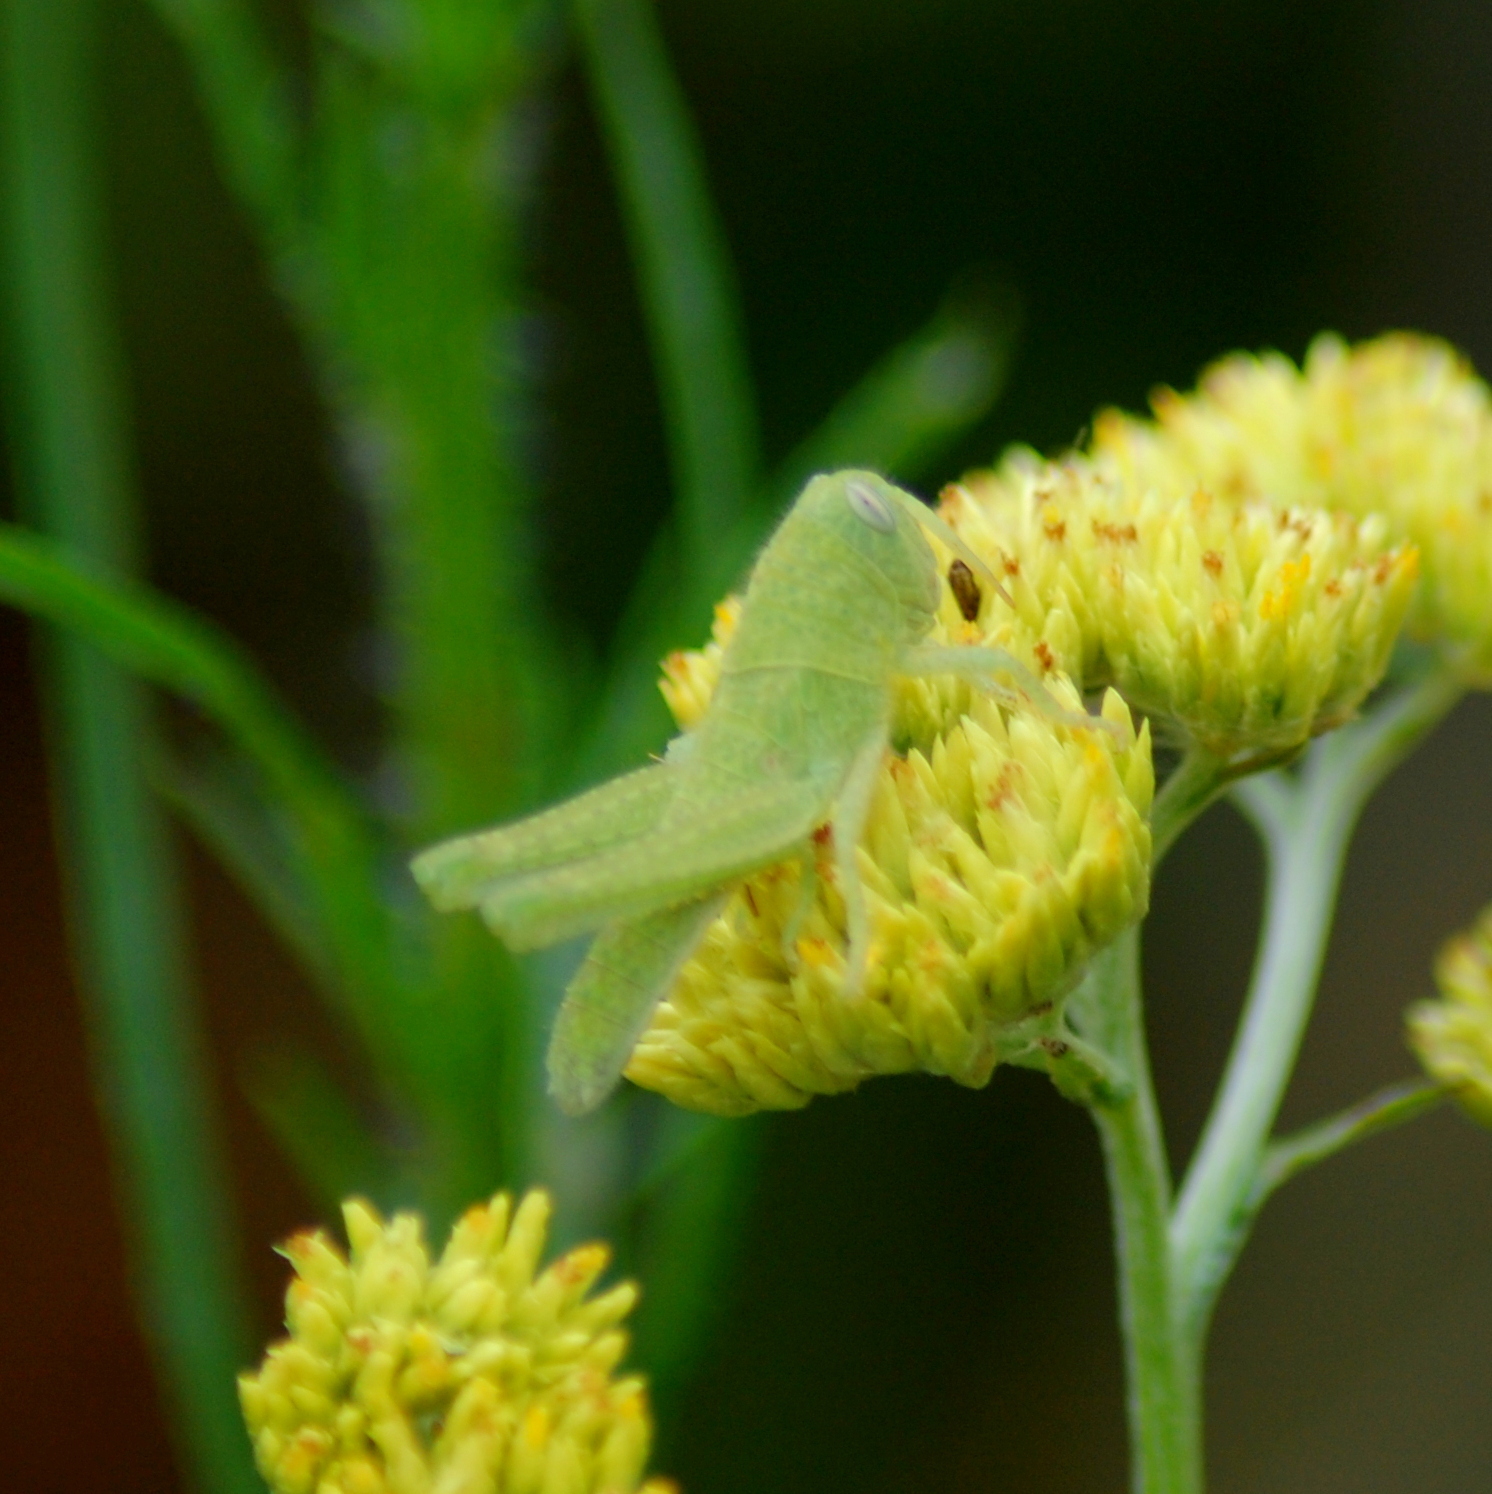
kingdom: Animalia
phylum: Arthropoda
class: Insecta
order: Orthoptera
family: Acrididae
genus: Schistocerca
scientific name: Schistocerca flavofasciata
